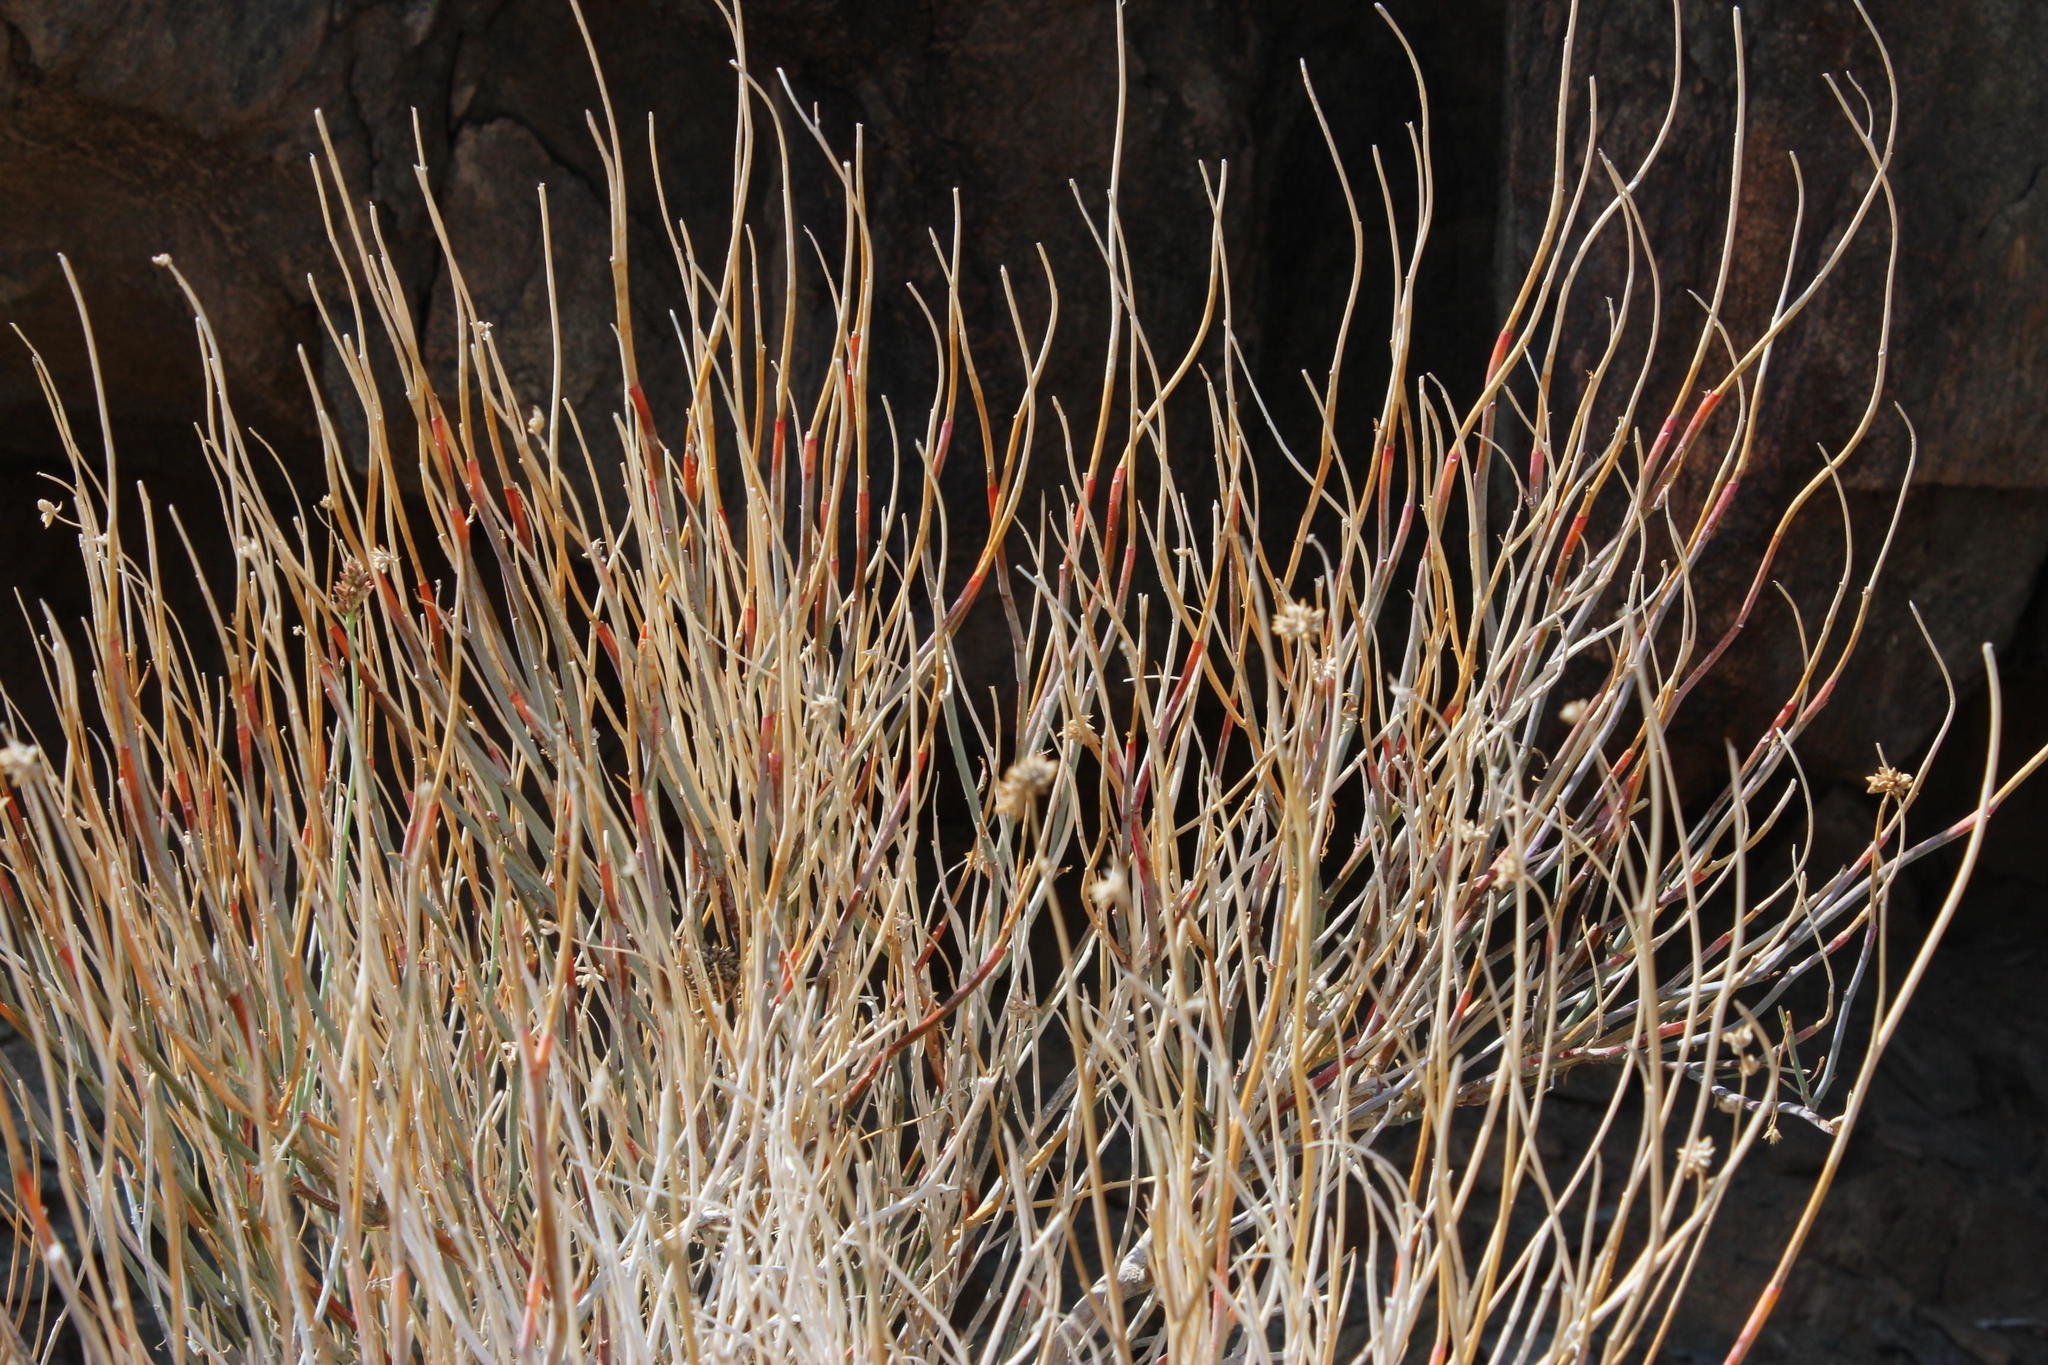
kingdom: Plantae
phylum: Tracheophyta
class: Magnoliopsida
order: Caryophyllales
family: Amaranthaceae
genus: Hermbstaedtia
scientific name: Hermbstaedtia glauca
